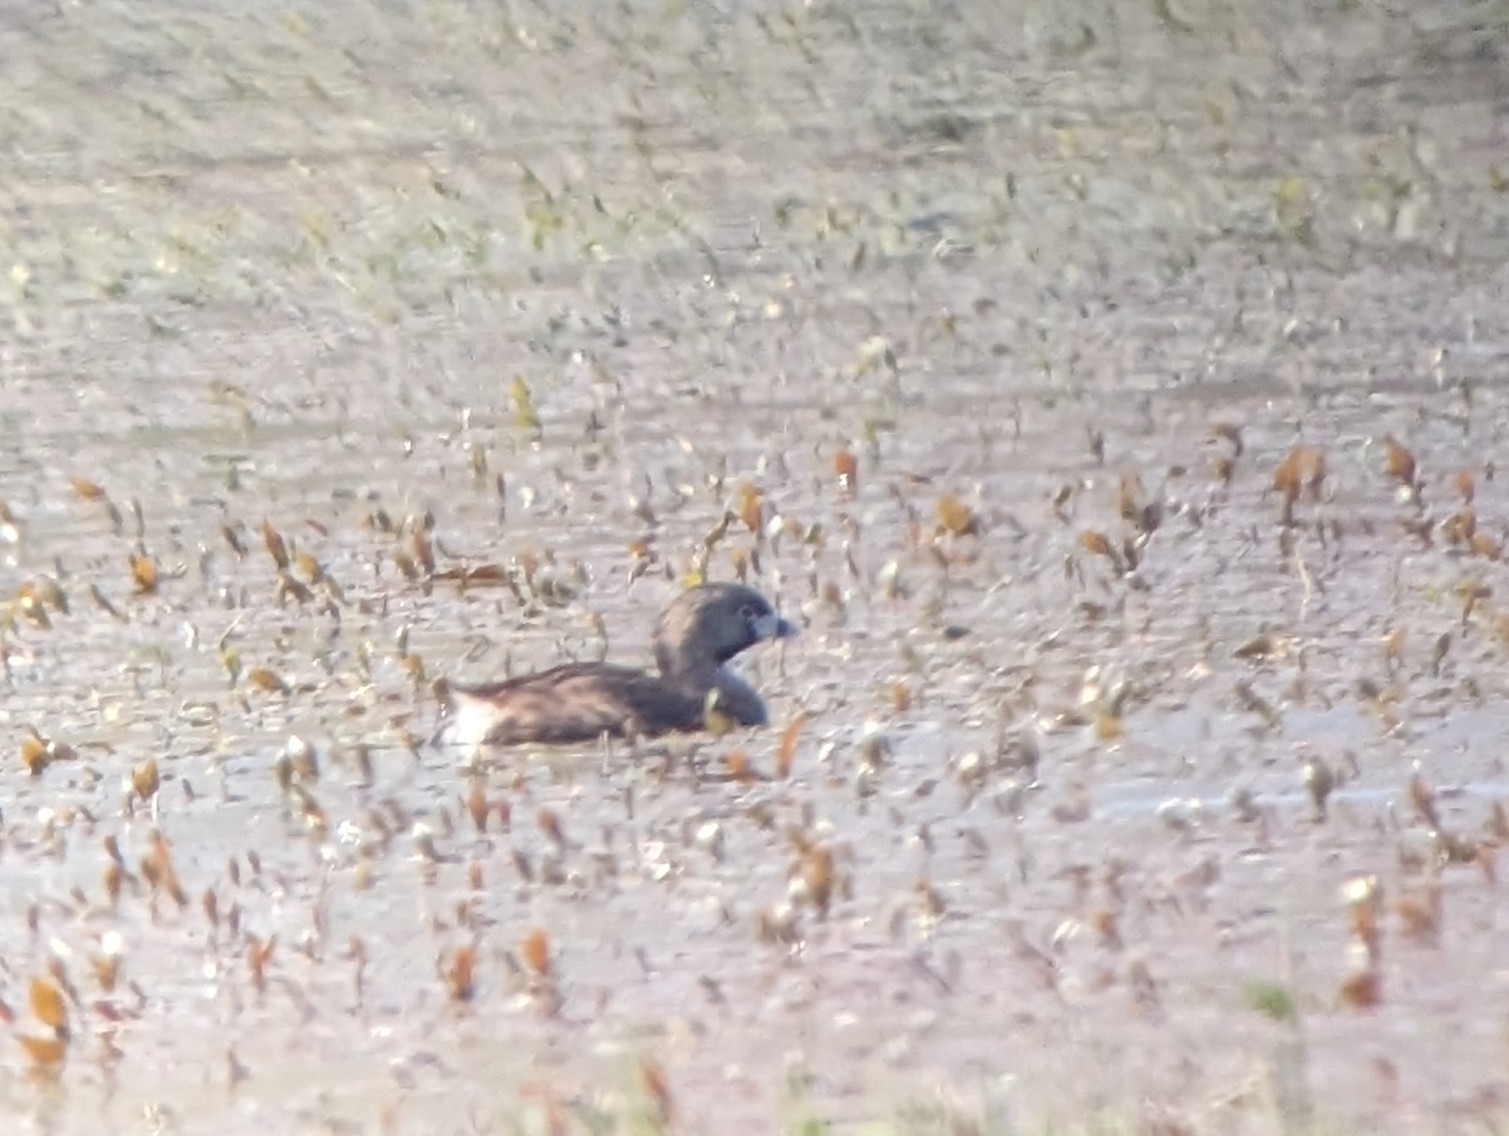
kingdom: Animalia
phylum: Chordata
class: Aves
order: Podicipediformes
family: Podicipedidae
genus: Podilymbus
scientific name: Podilymbus podiceps
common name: Pied-billed grebe
